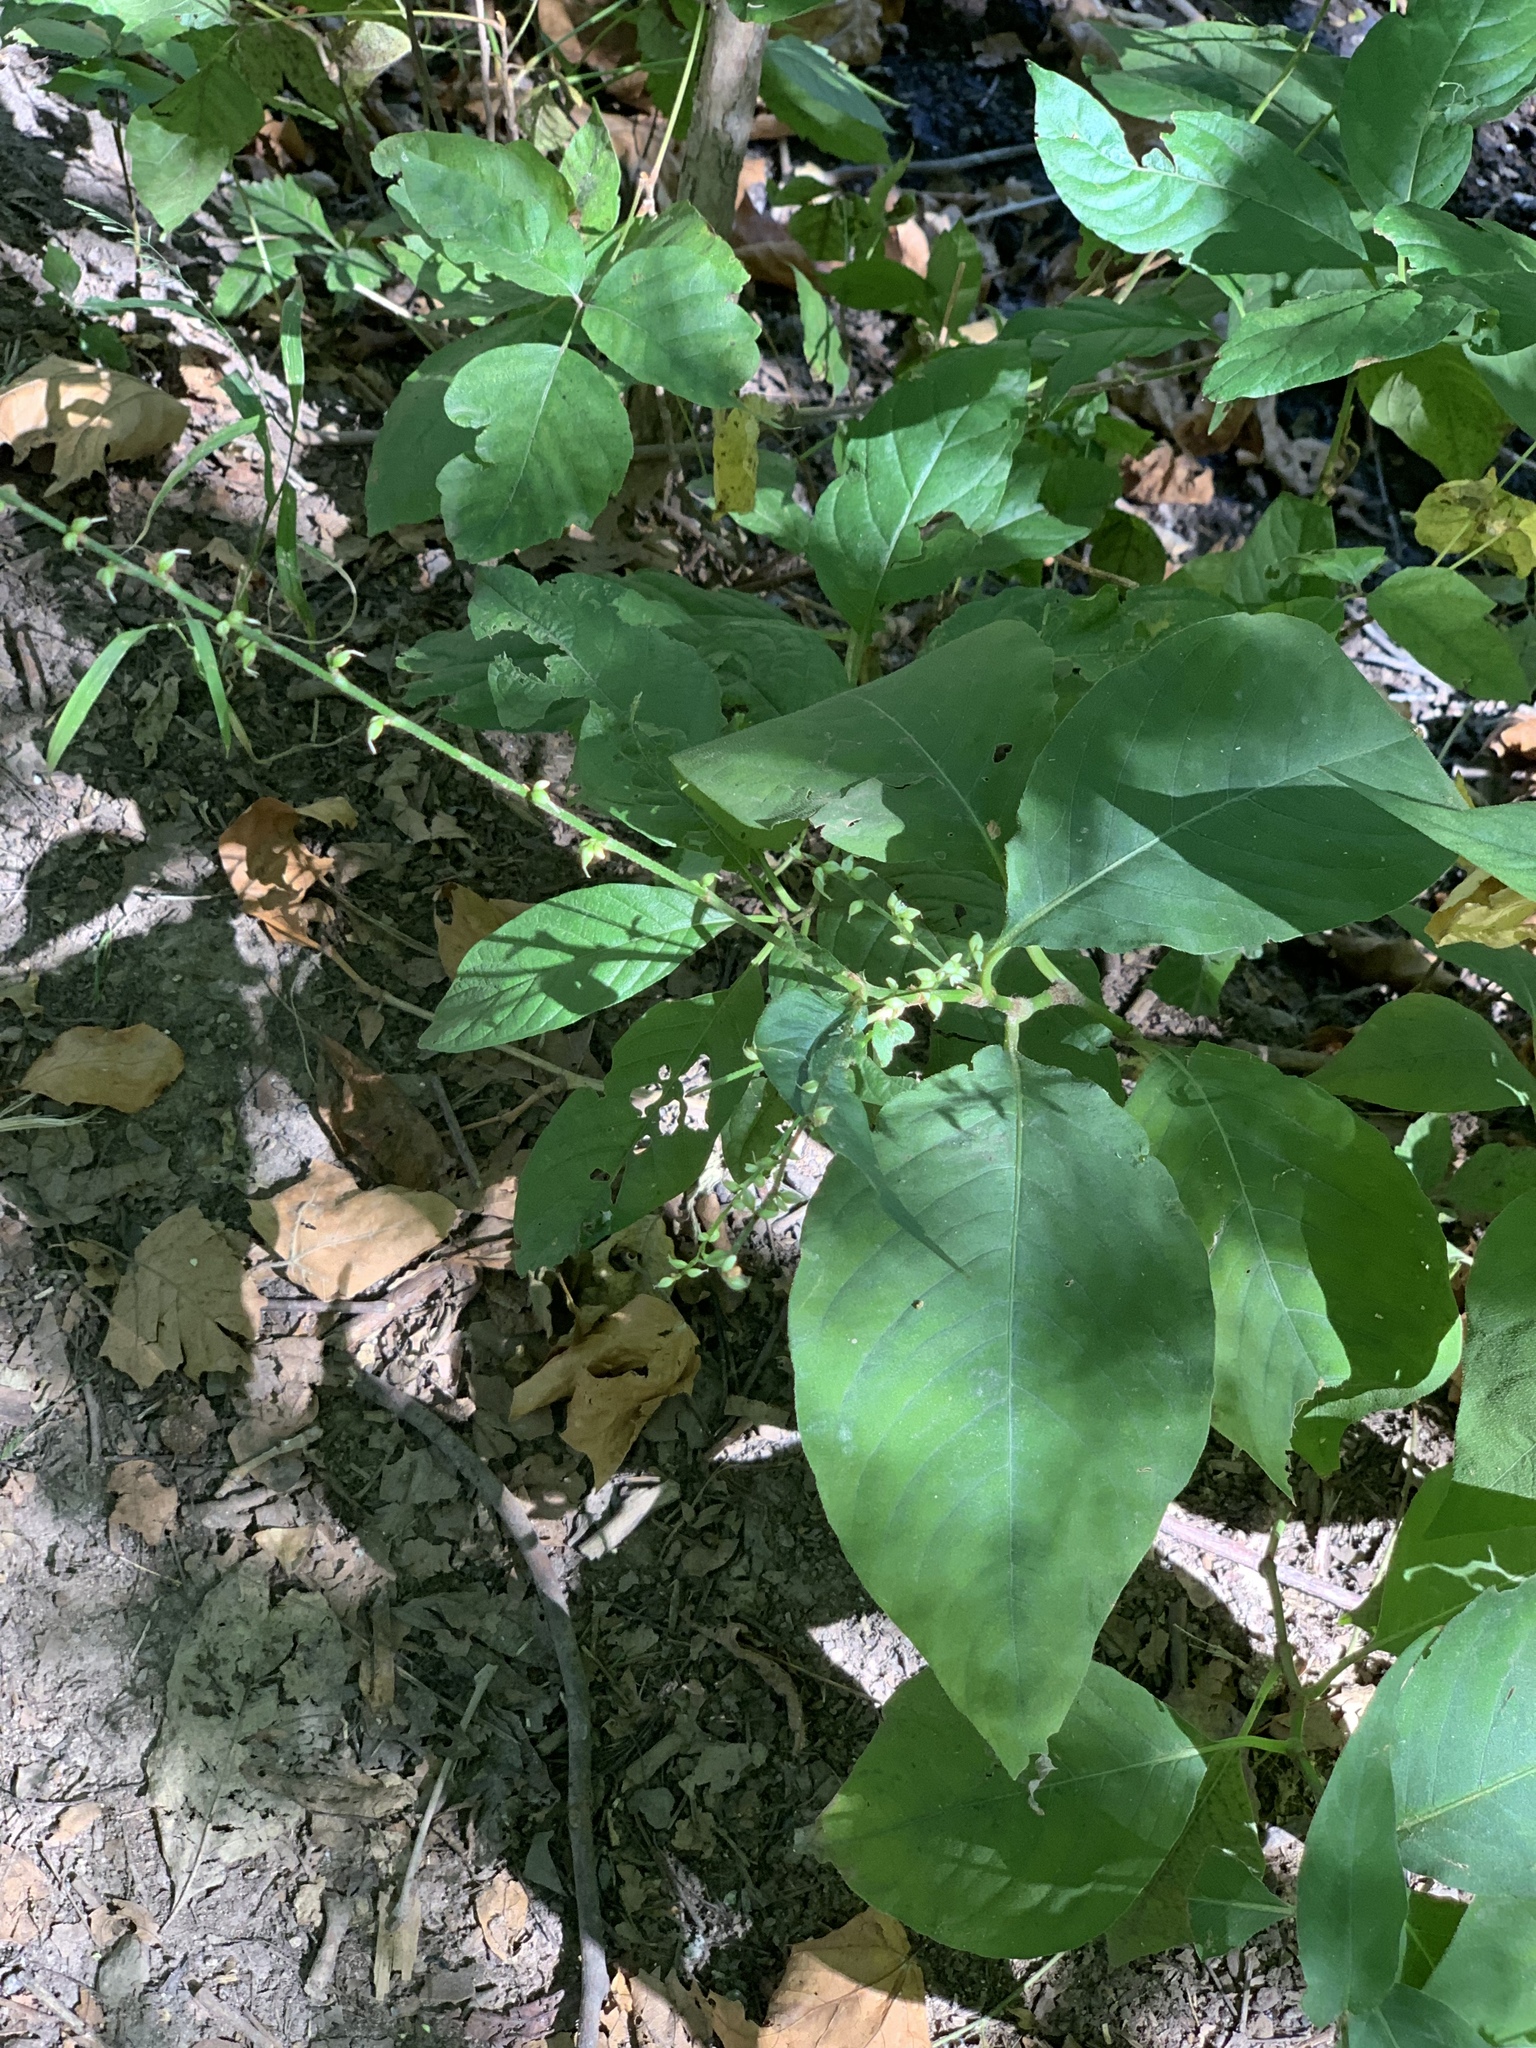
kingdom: Plantae
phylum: Tracheophyta
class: Magnoliopsida
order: Caryophyllales
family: Polygonaceae
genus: Persicaria
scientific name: Persicaria virginiana
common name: Jumpseed
